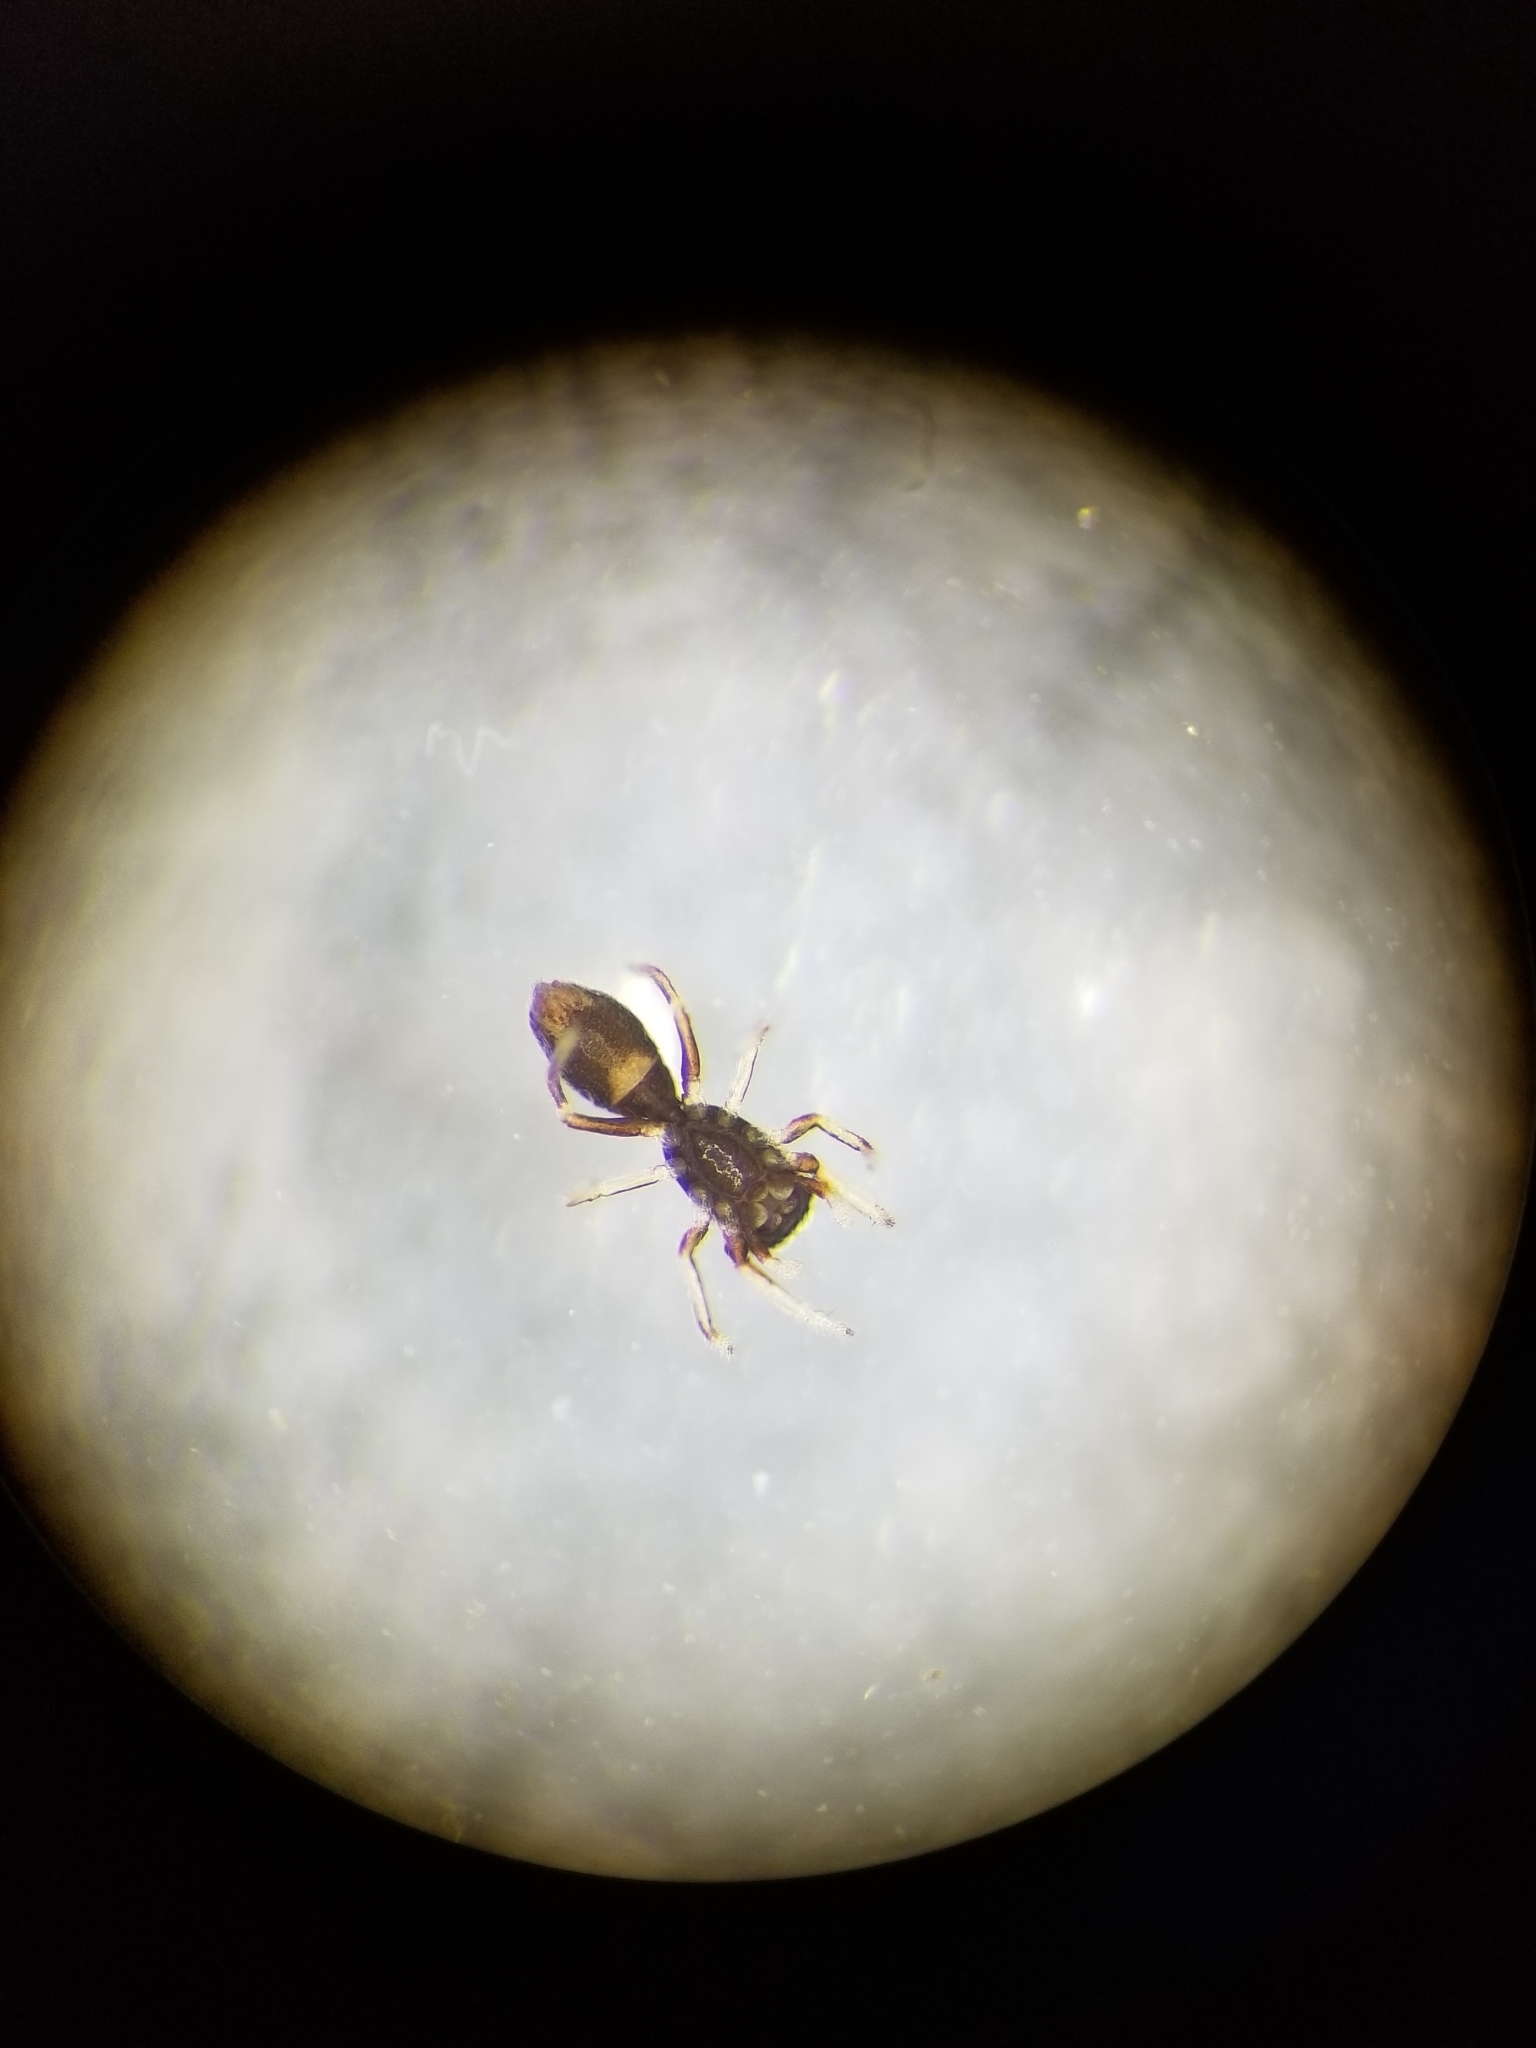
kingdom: Animalia
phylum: Arthropoda
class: Arachnida
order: Araneae
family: Salticidae
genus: Synageles
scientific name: Synageles
